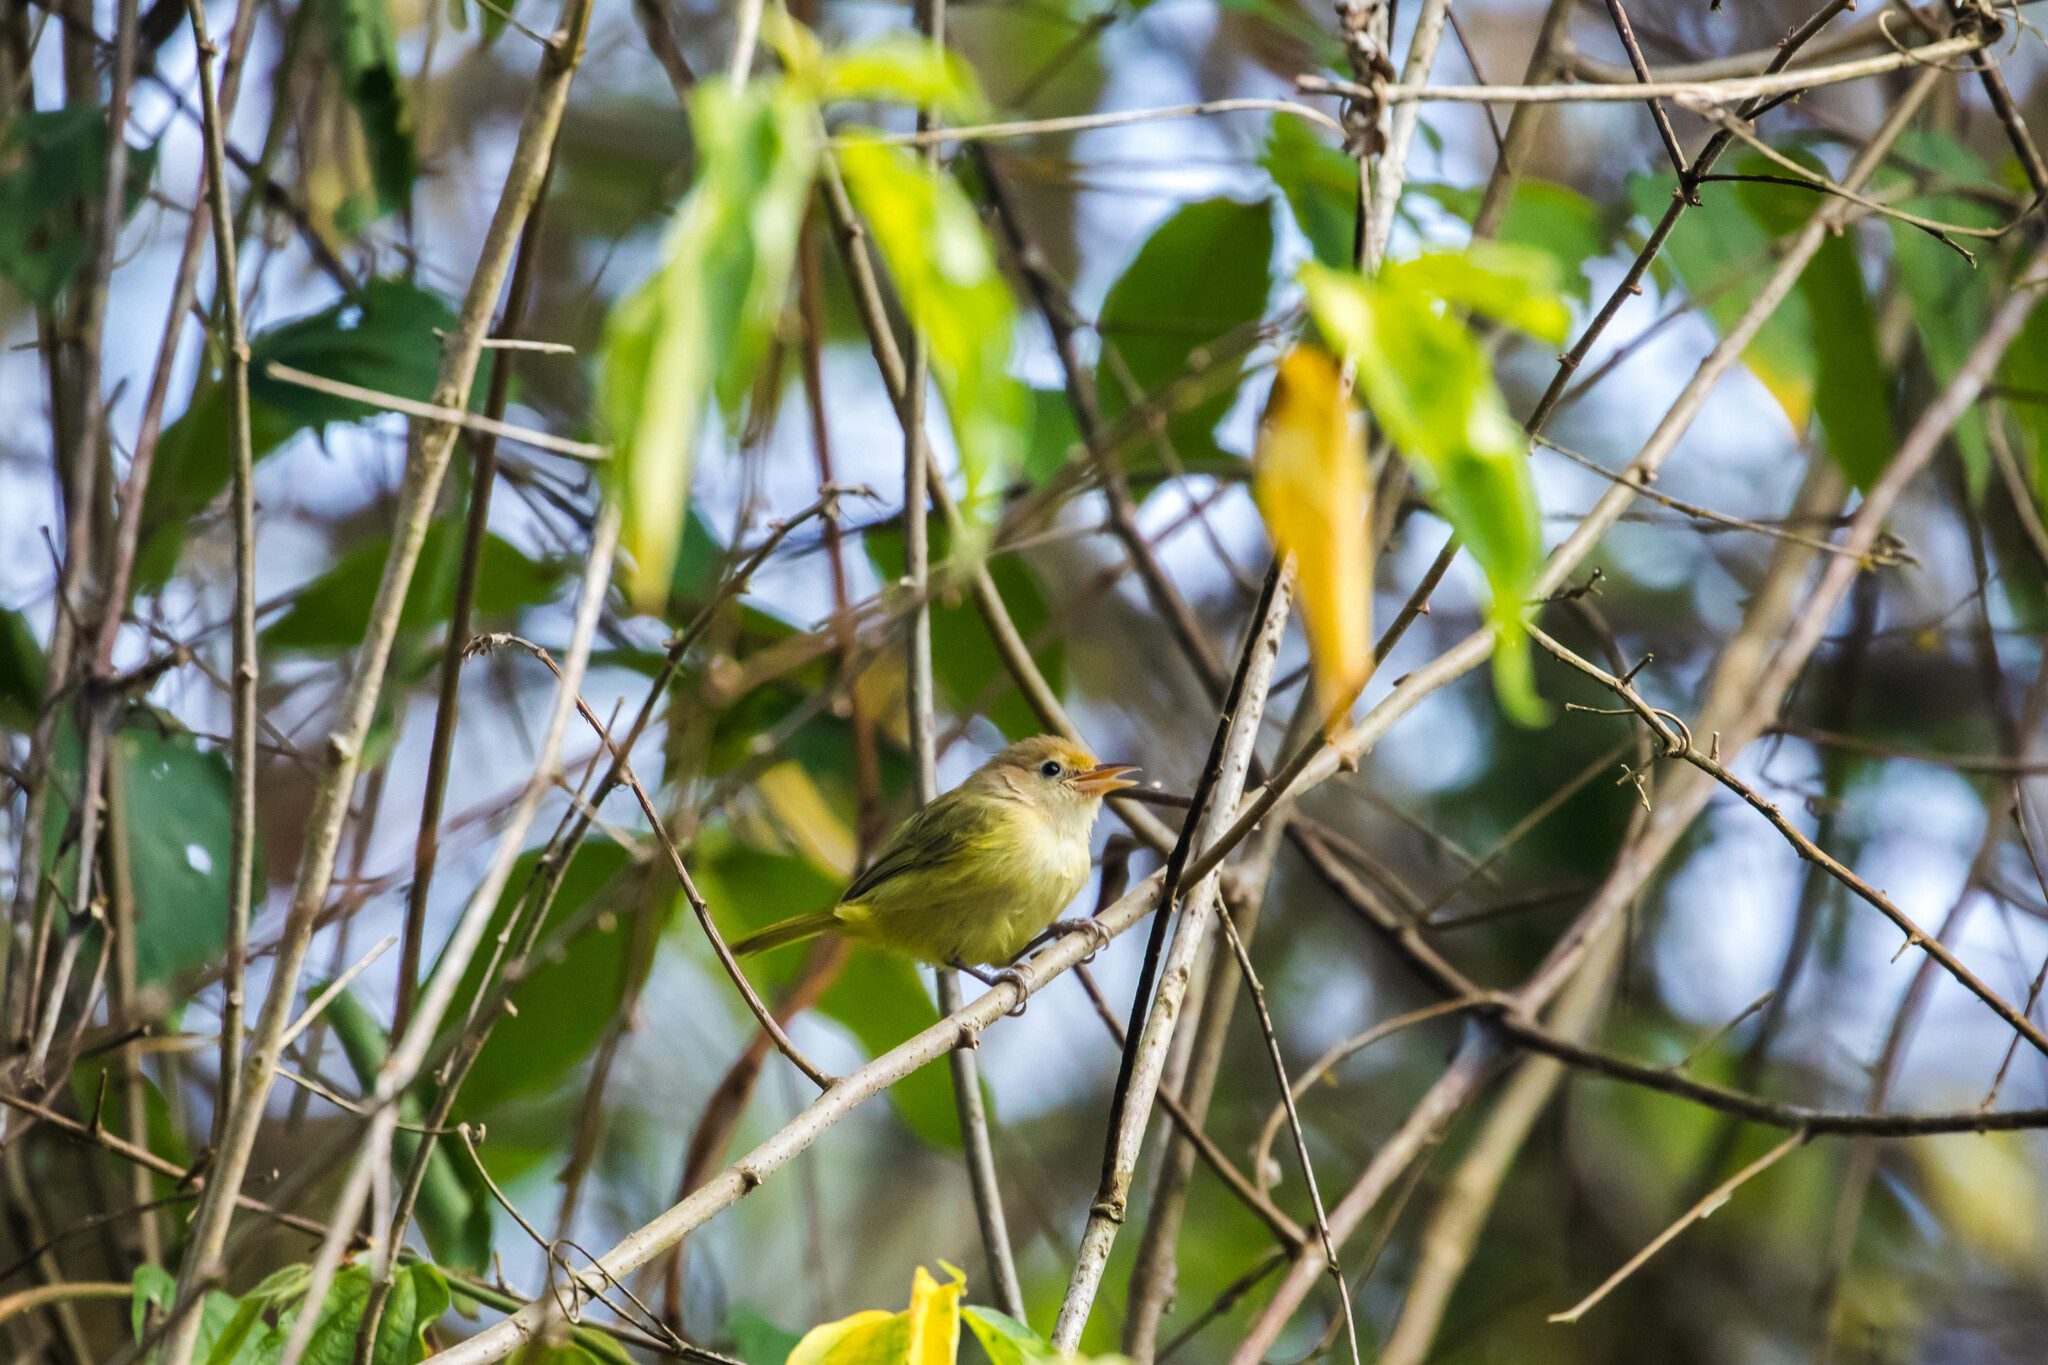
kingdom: Animalia
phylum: Chordata
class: Aves
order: Passeriformes
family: Vireonidae
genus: Hylophilus
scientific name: Hylophilus aurantiifrons
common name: Golden-fronted greenlet
